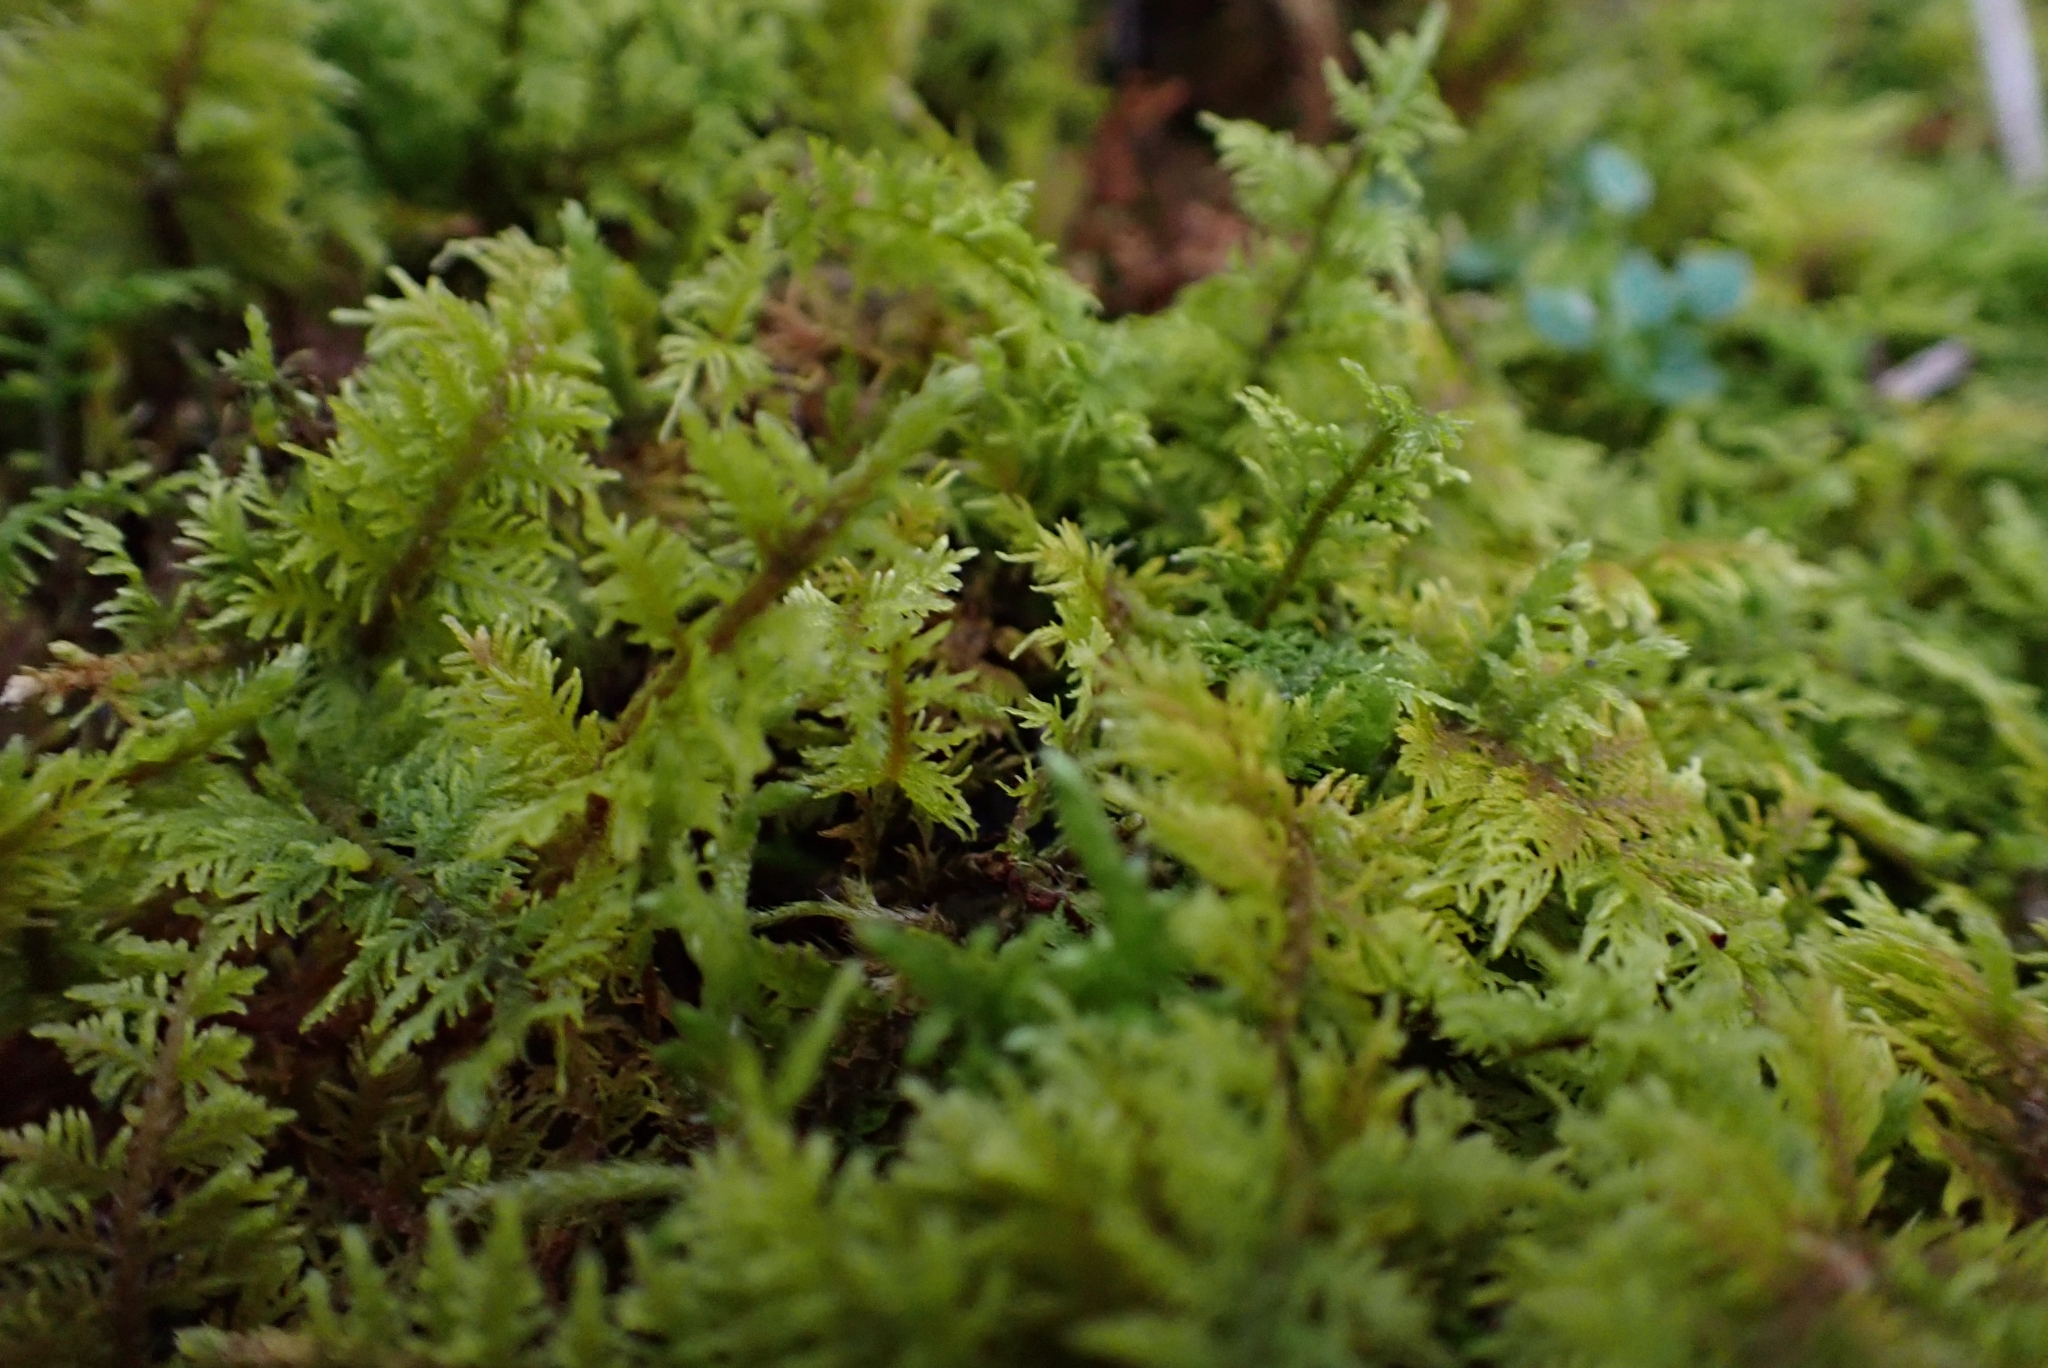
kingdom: Plantae
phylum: Bryophyta
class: Bryopsida
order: Hypnales
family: Thuidiaceae
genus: Thuidium
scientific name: Thuidium delicatulum
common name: Delicate fern moss
